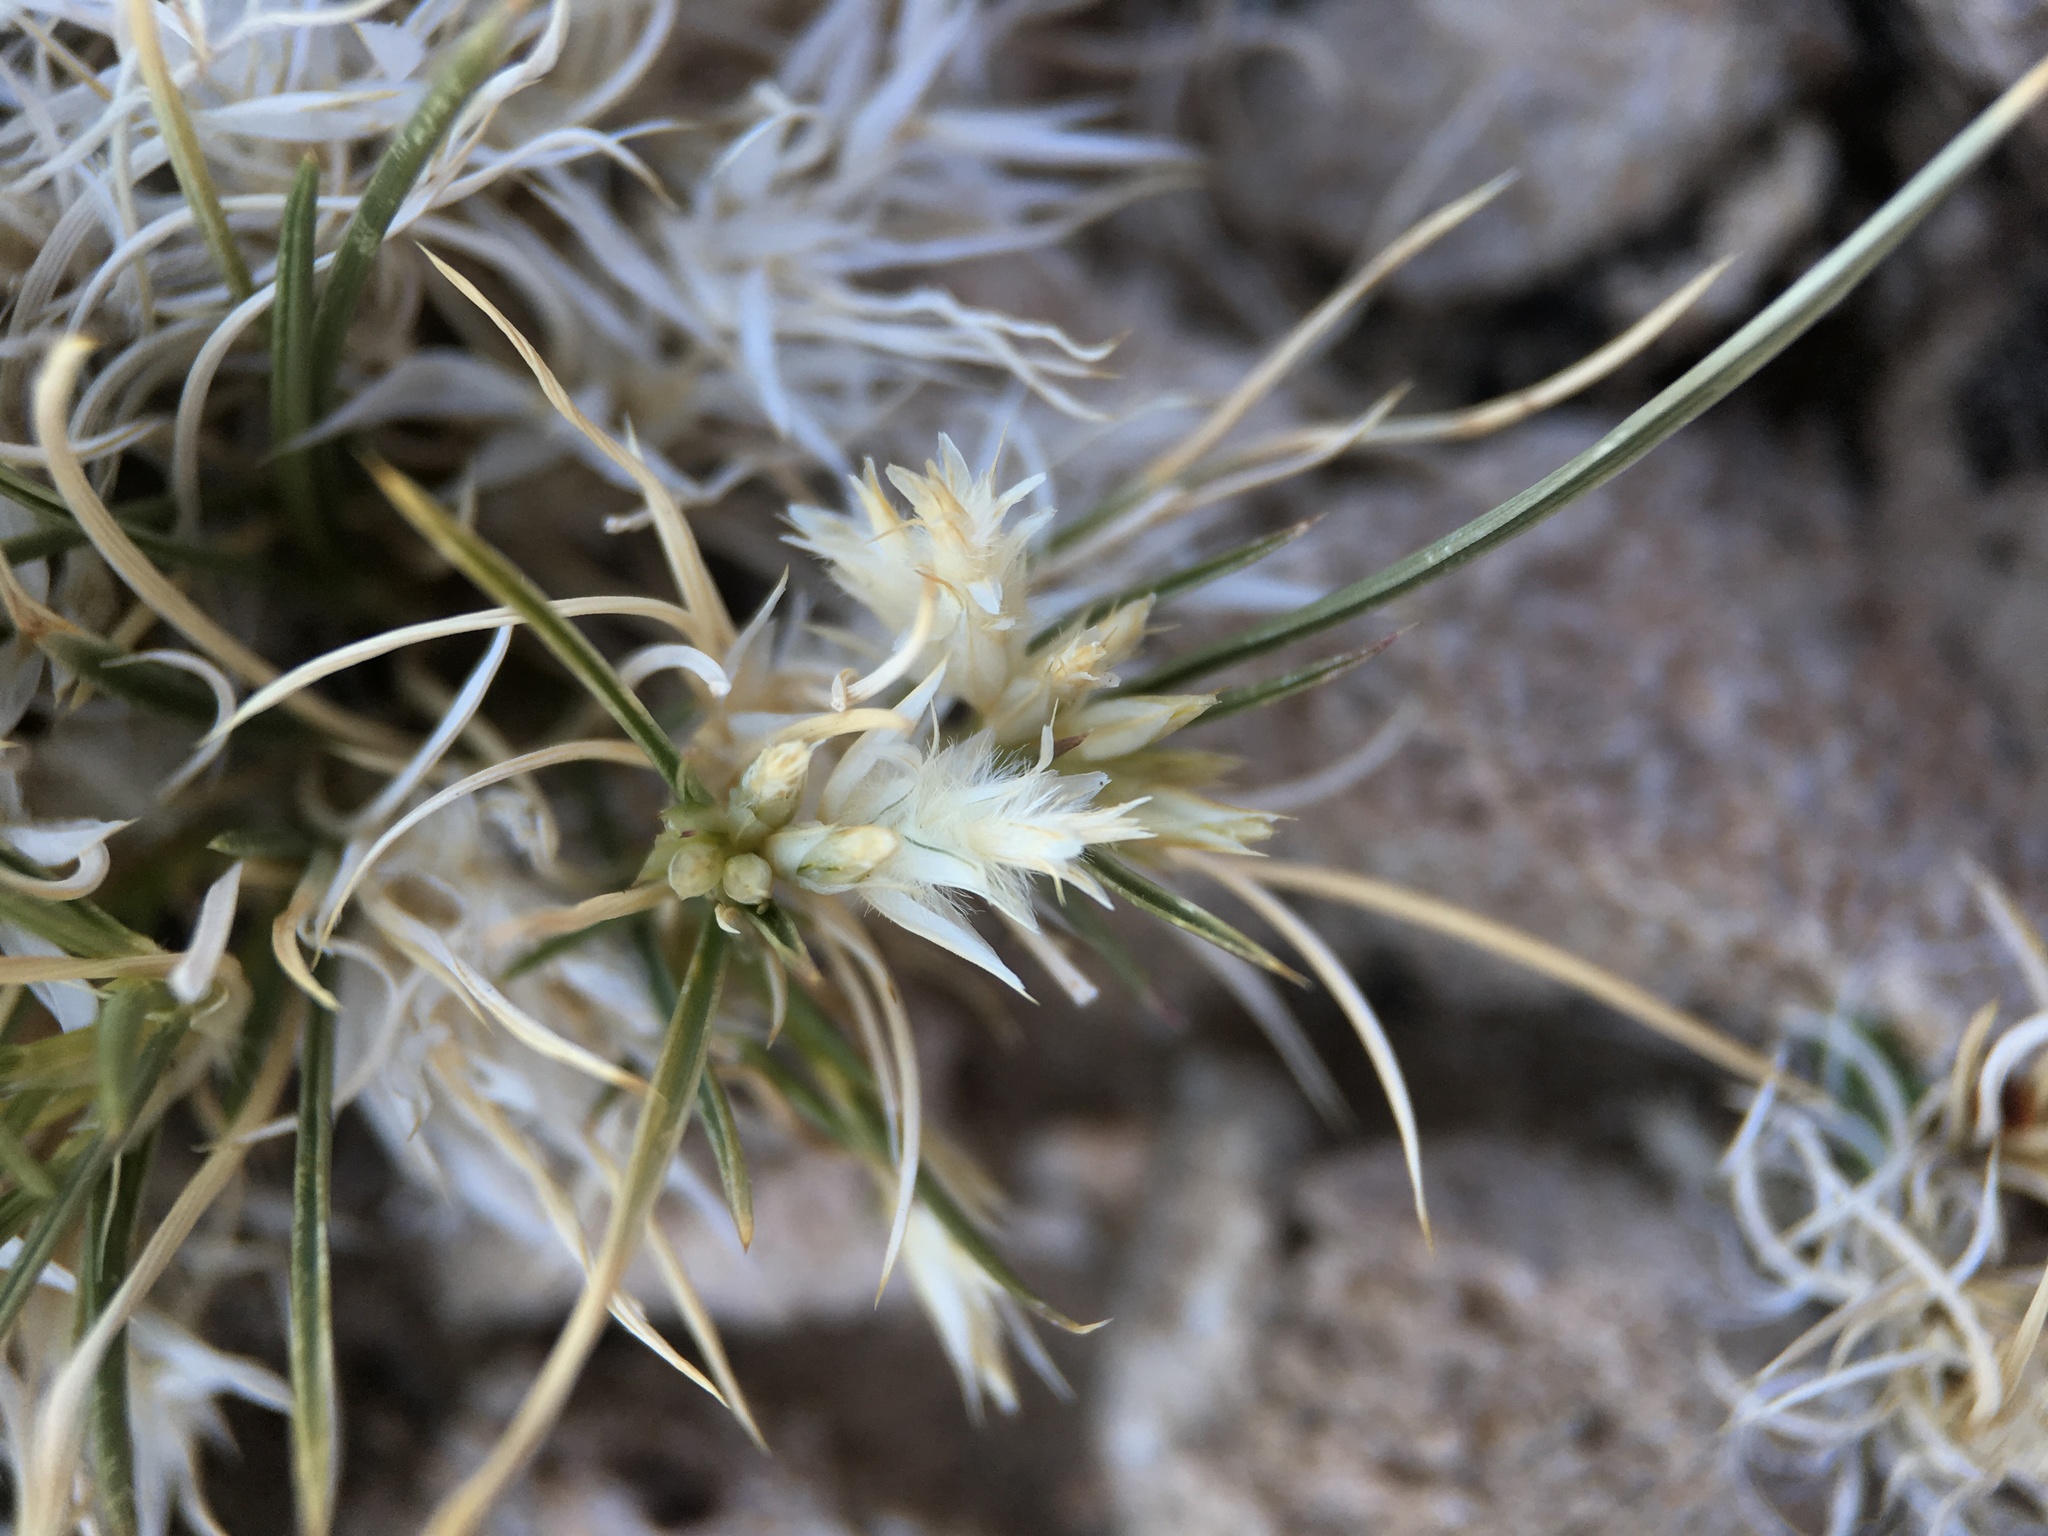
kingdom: Plantae
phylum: Tracheophyta
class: Liliopsida
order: Poales
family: Poaceae
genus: Dasyochloa
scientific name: Dasyochloa pulchella
